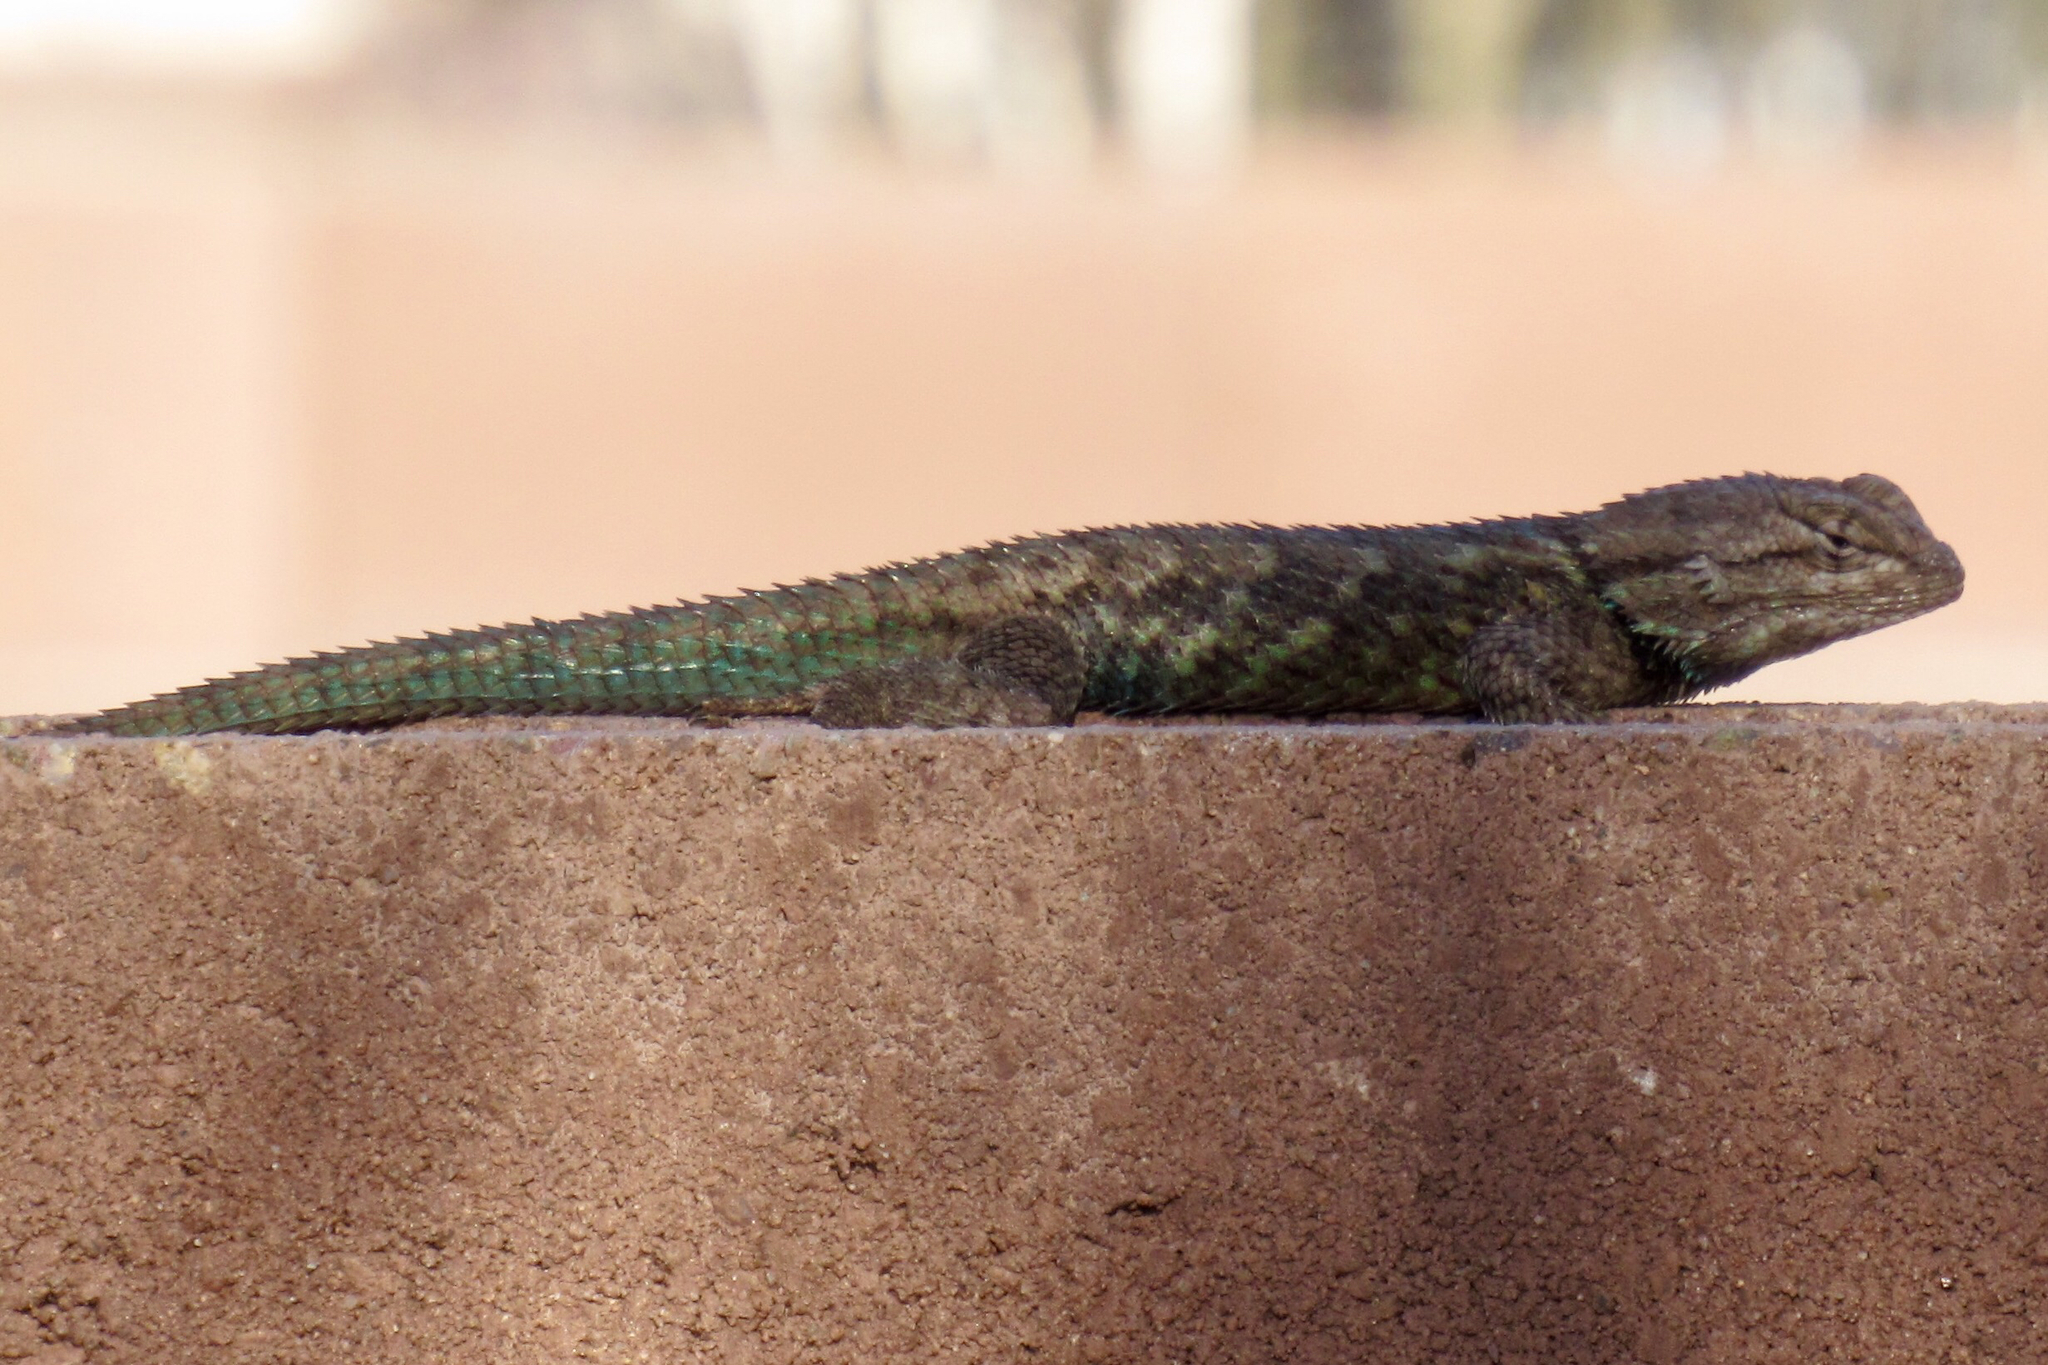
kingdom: Animalia
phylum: Chordata
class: Squamata
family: Phrynosomatidae
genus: Sceloporus
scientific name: Sceloporus clarkii
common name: Clark's spiny lizard
